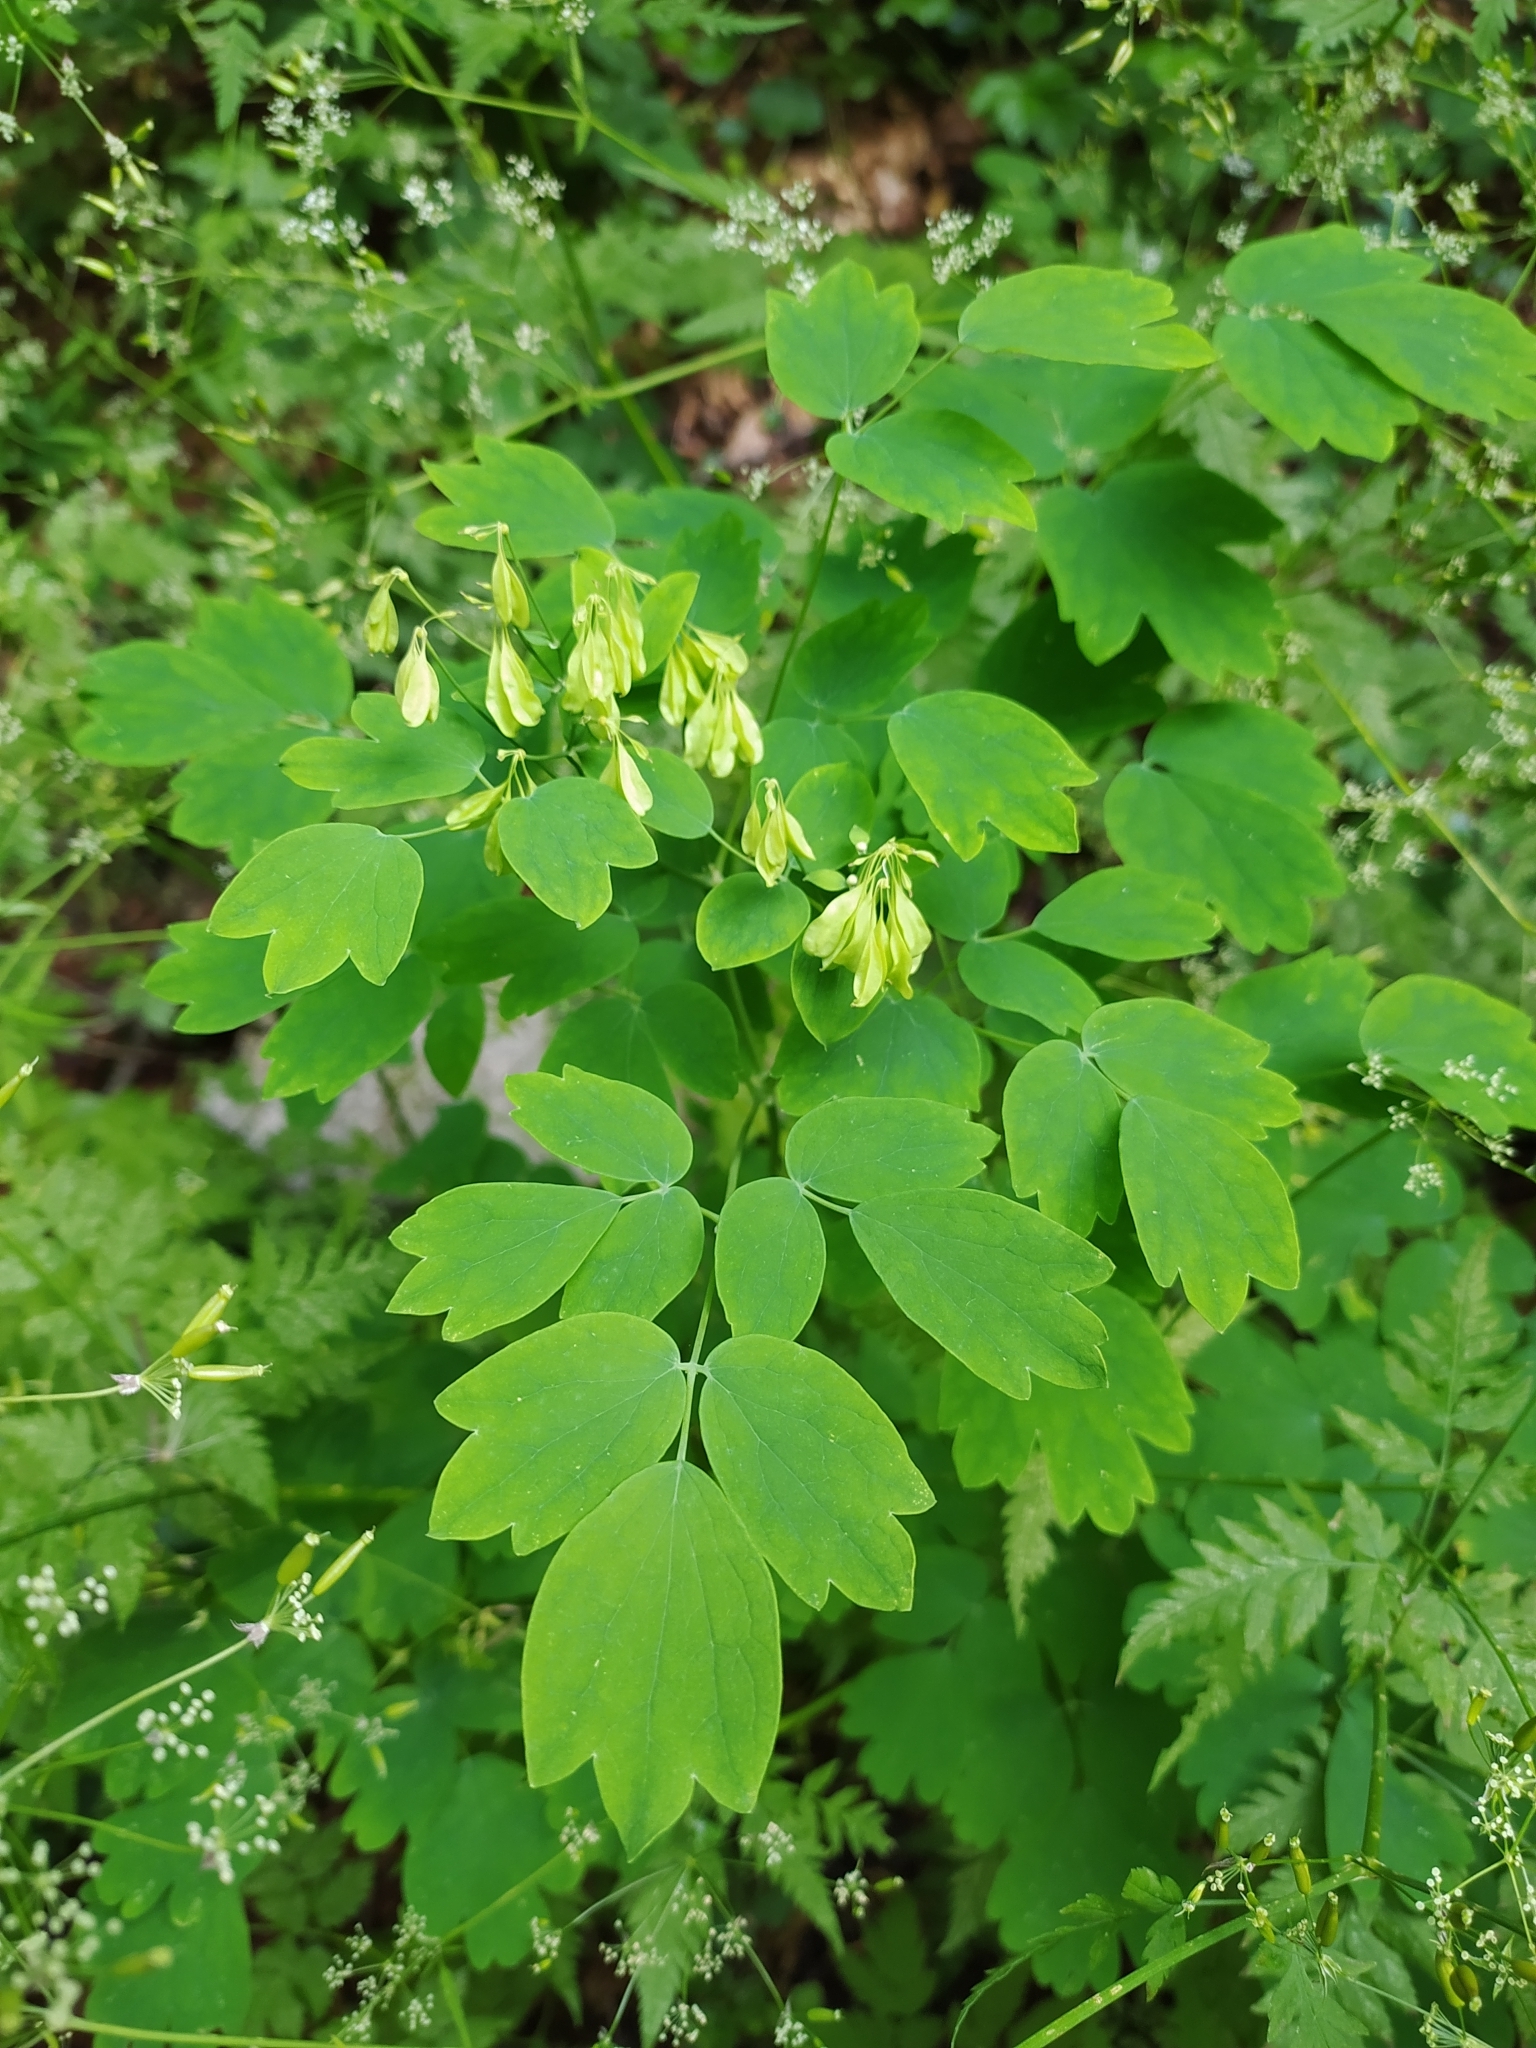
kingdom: Plantae
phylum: Tracheophyta
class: Magnoliopsida
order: Ranunculales
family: Ranunculaceae
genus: Thalictrum
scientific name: Thalictrum aquilegiifolium
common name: French meadow-rue
